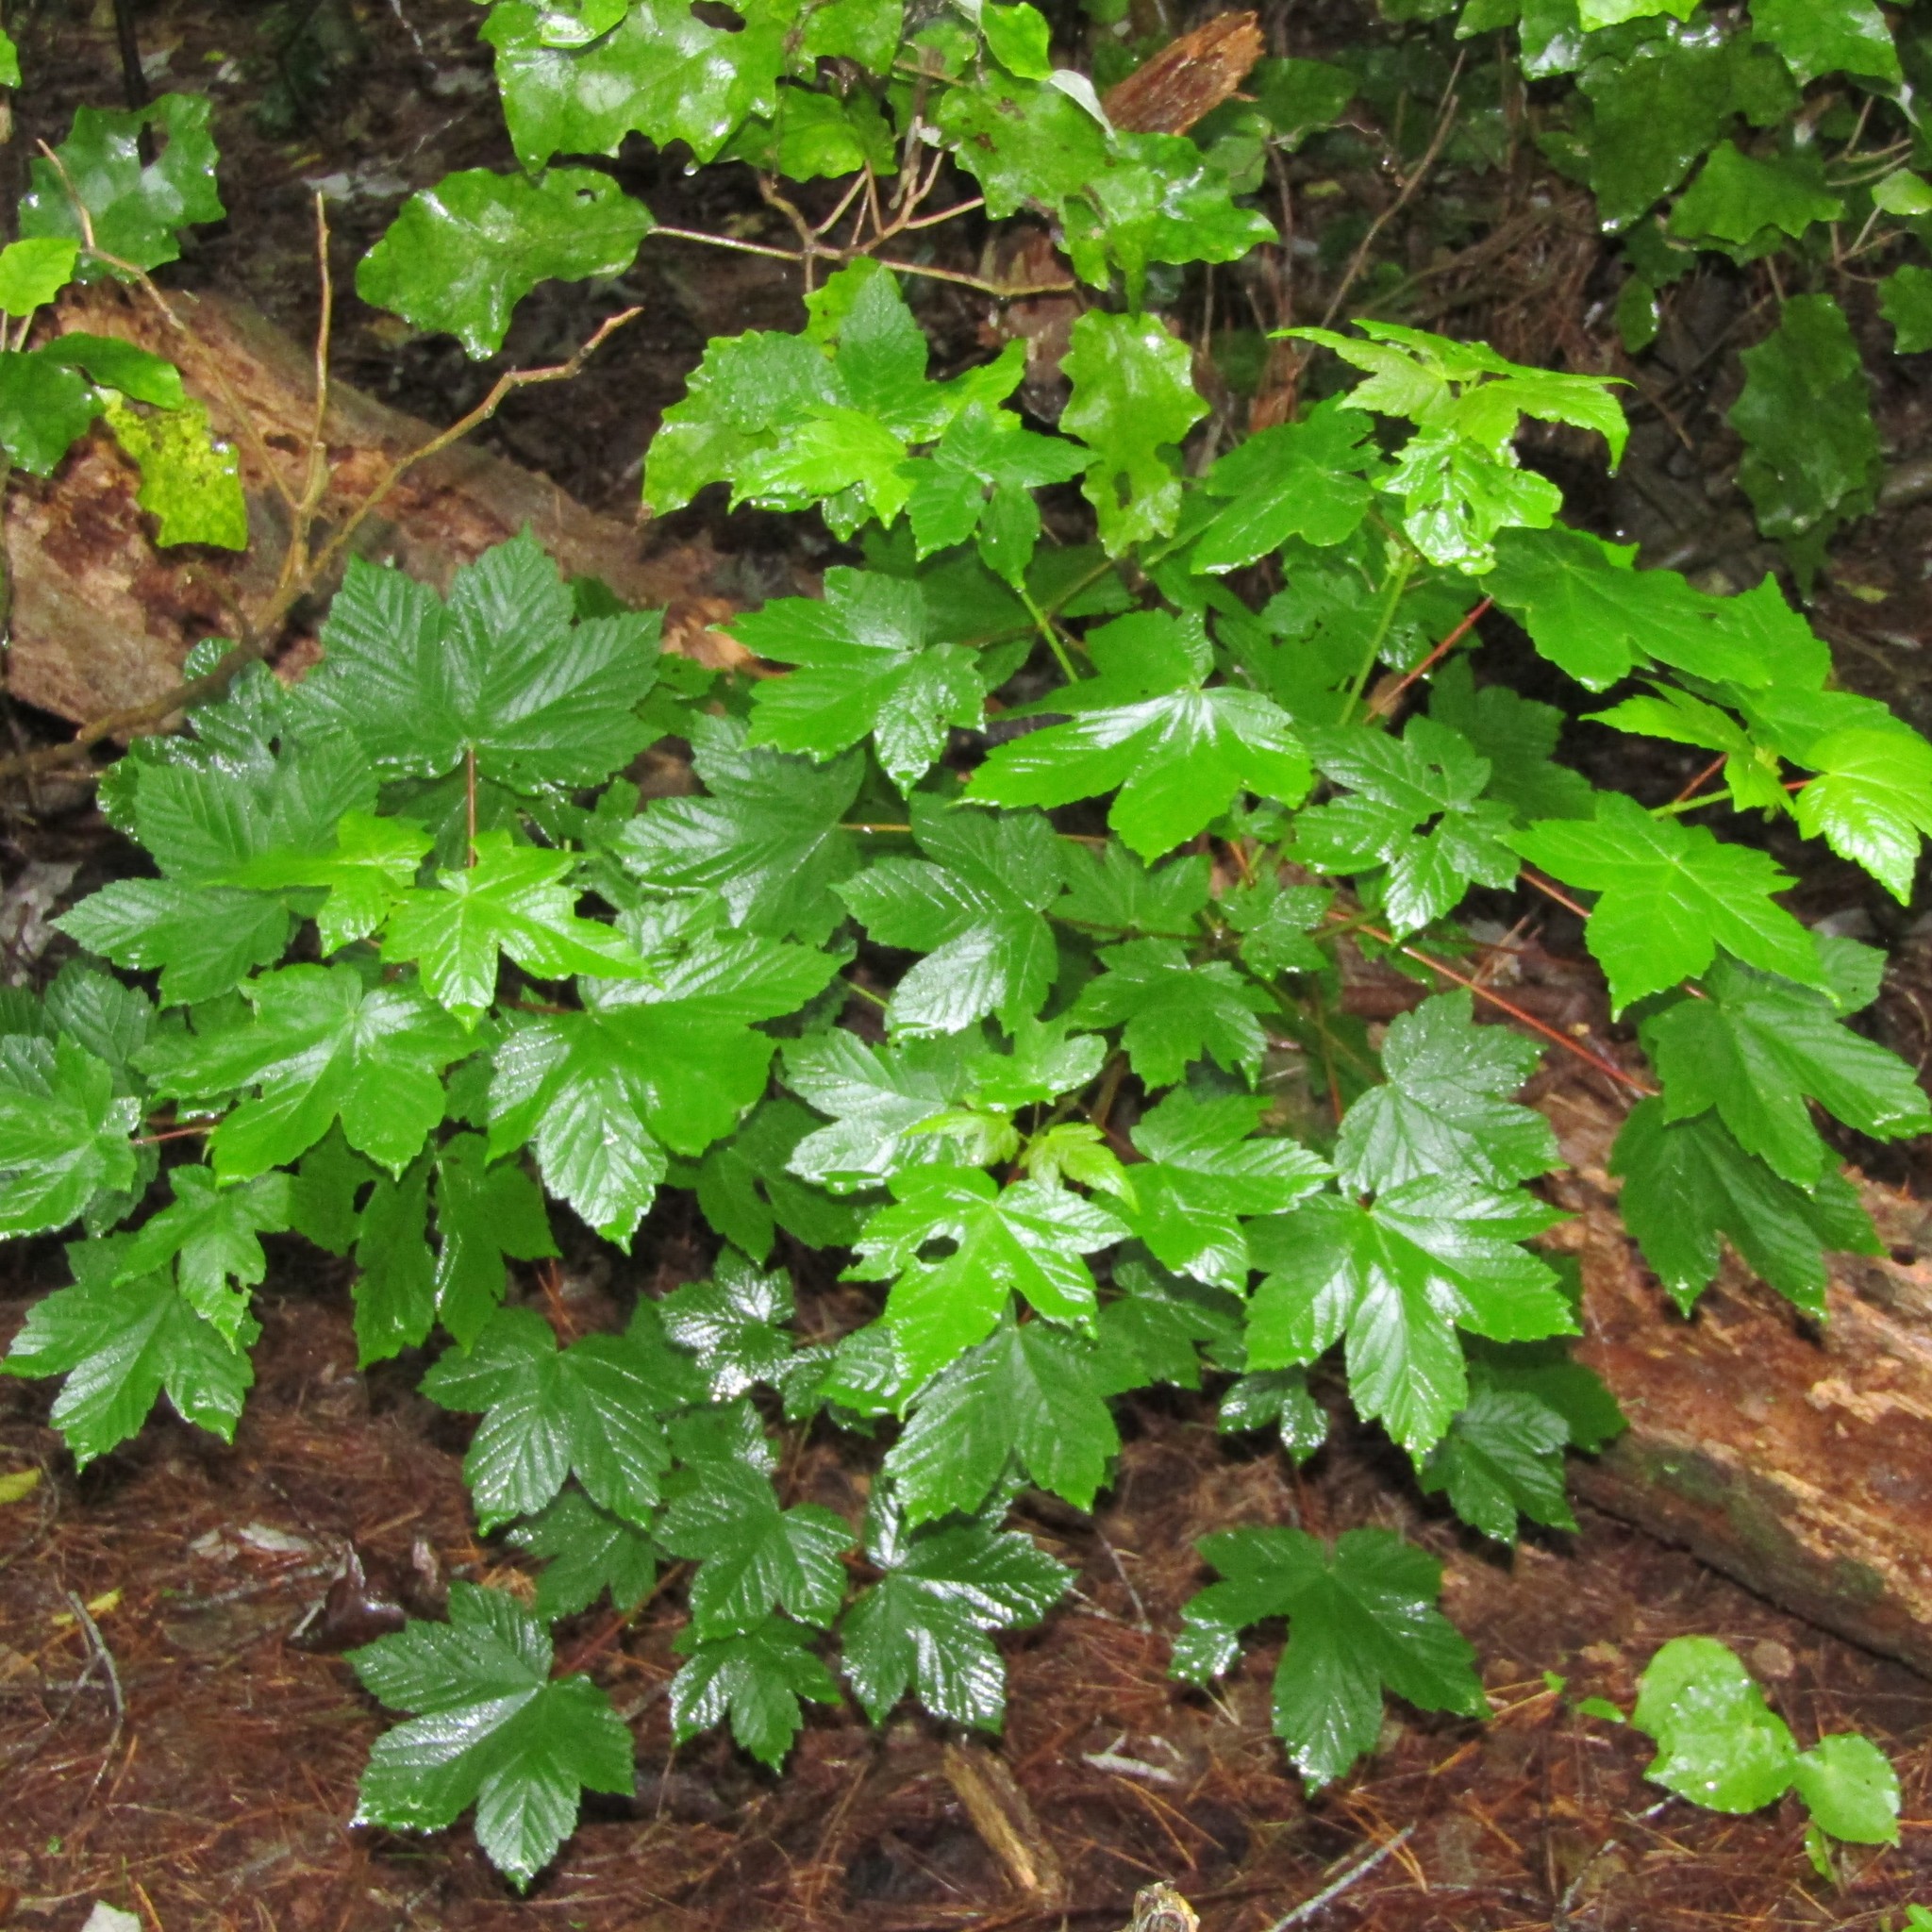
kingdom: Plantae
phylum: Tracheophyta
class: Magnoliopsida
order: Sapindales
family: Sapindaceae
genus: Acer
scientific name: Acer pseudoplatanus
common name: Sycamore
